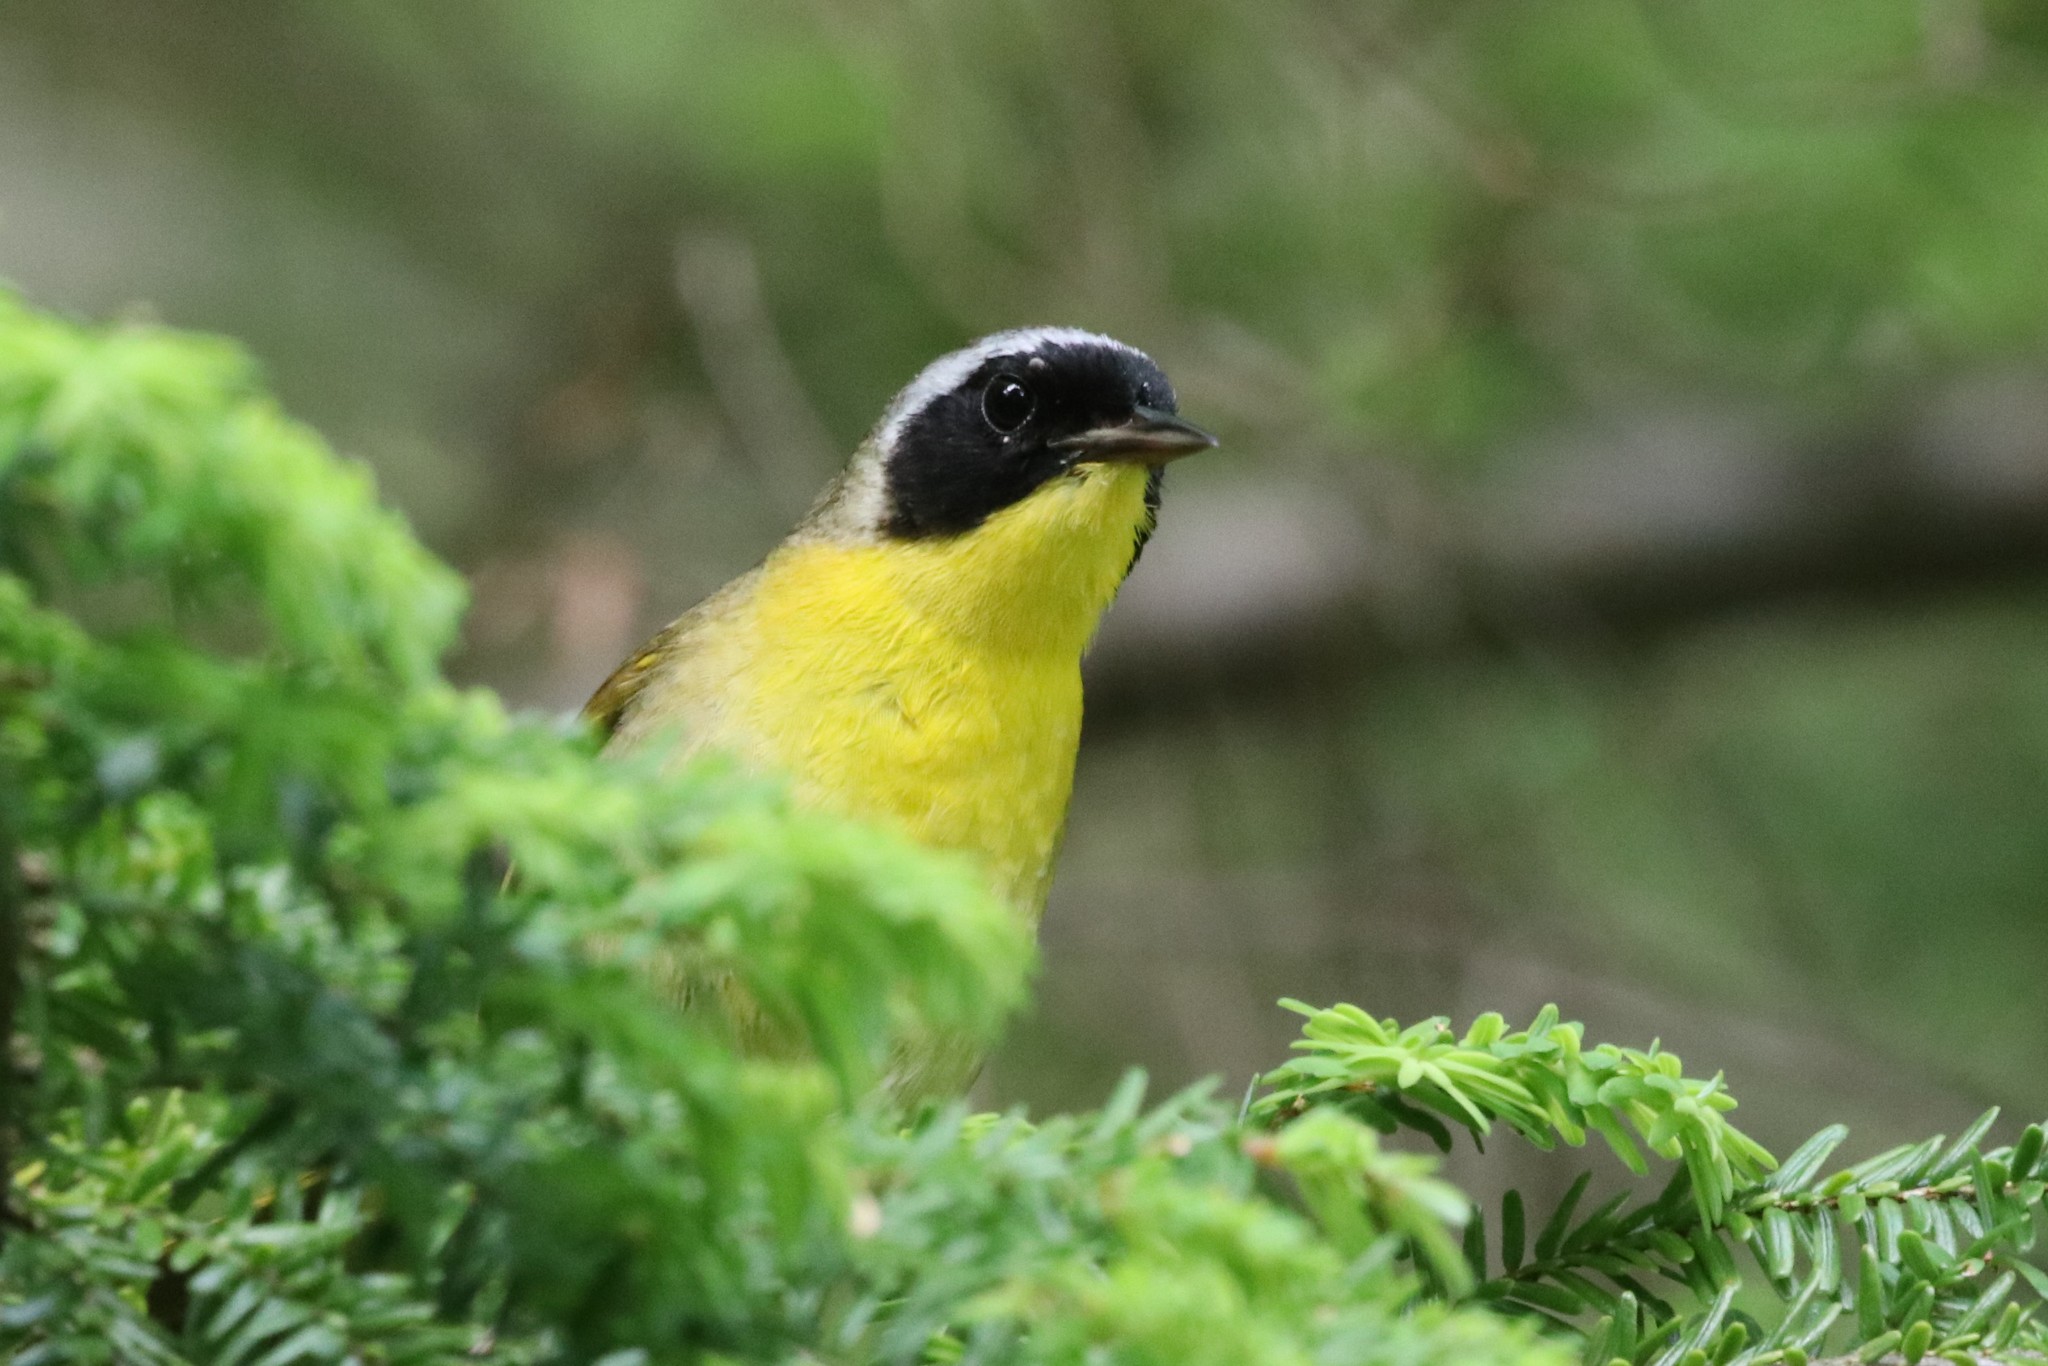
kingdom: Animalia
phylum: Chordata
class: Aves
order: Passeriformes
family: Parulidae
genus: Geothlypis
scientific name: Geothlypis trichas
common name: Common yellowthroat
